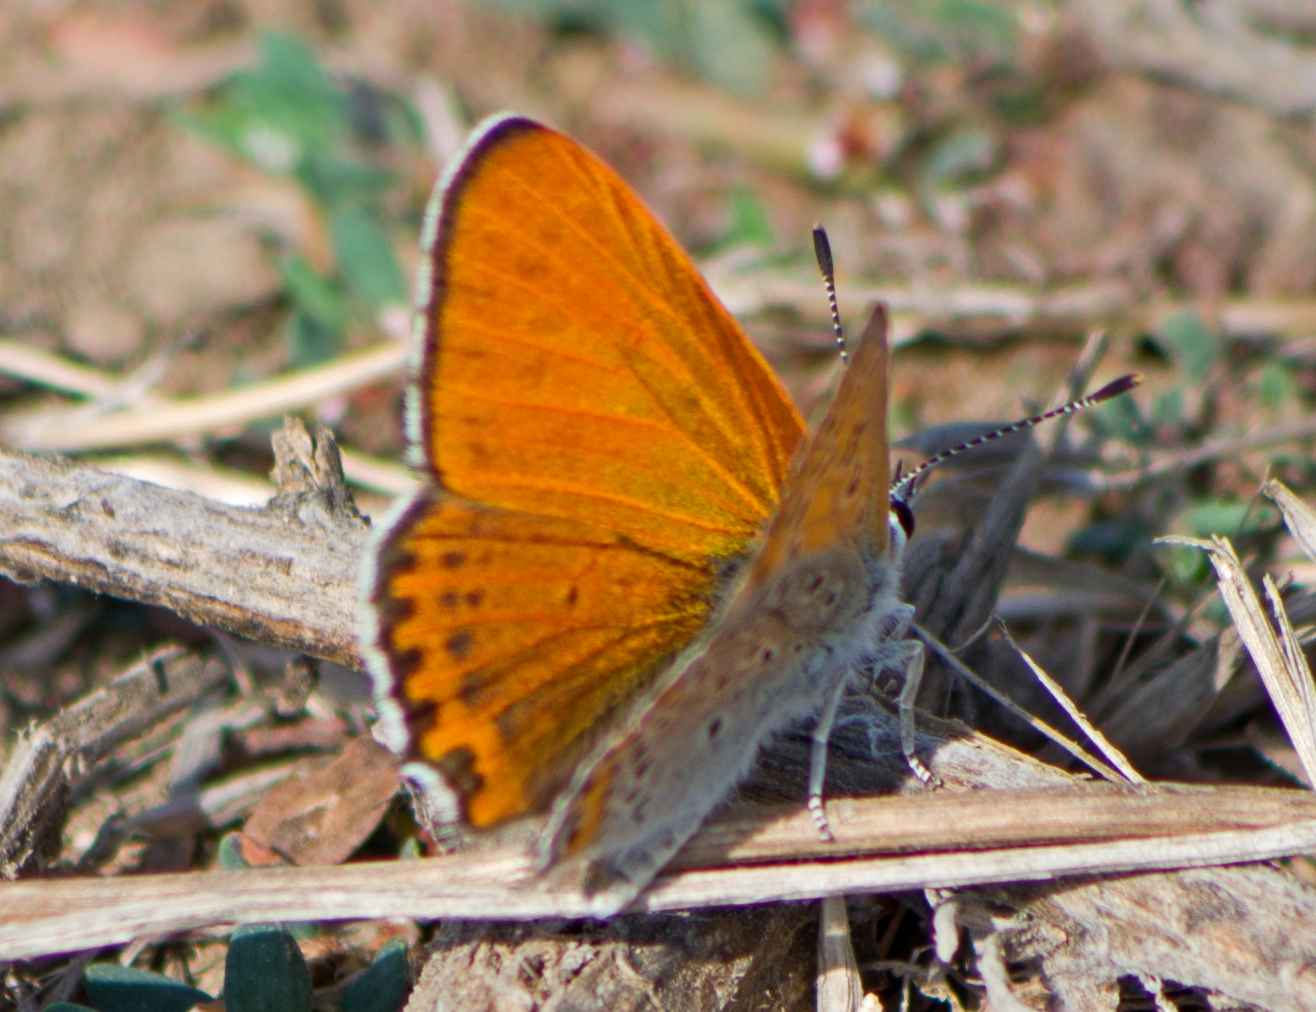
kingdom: Animalia
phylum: Arthropoda
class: Insecta
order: Lepidoptera
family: Lycaenidae
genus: Thersamonia
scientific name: Thersamonia thersamon
